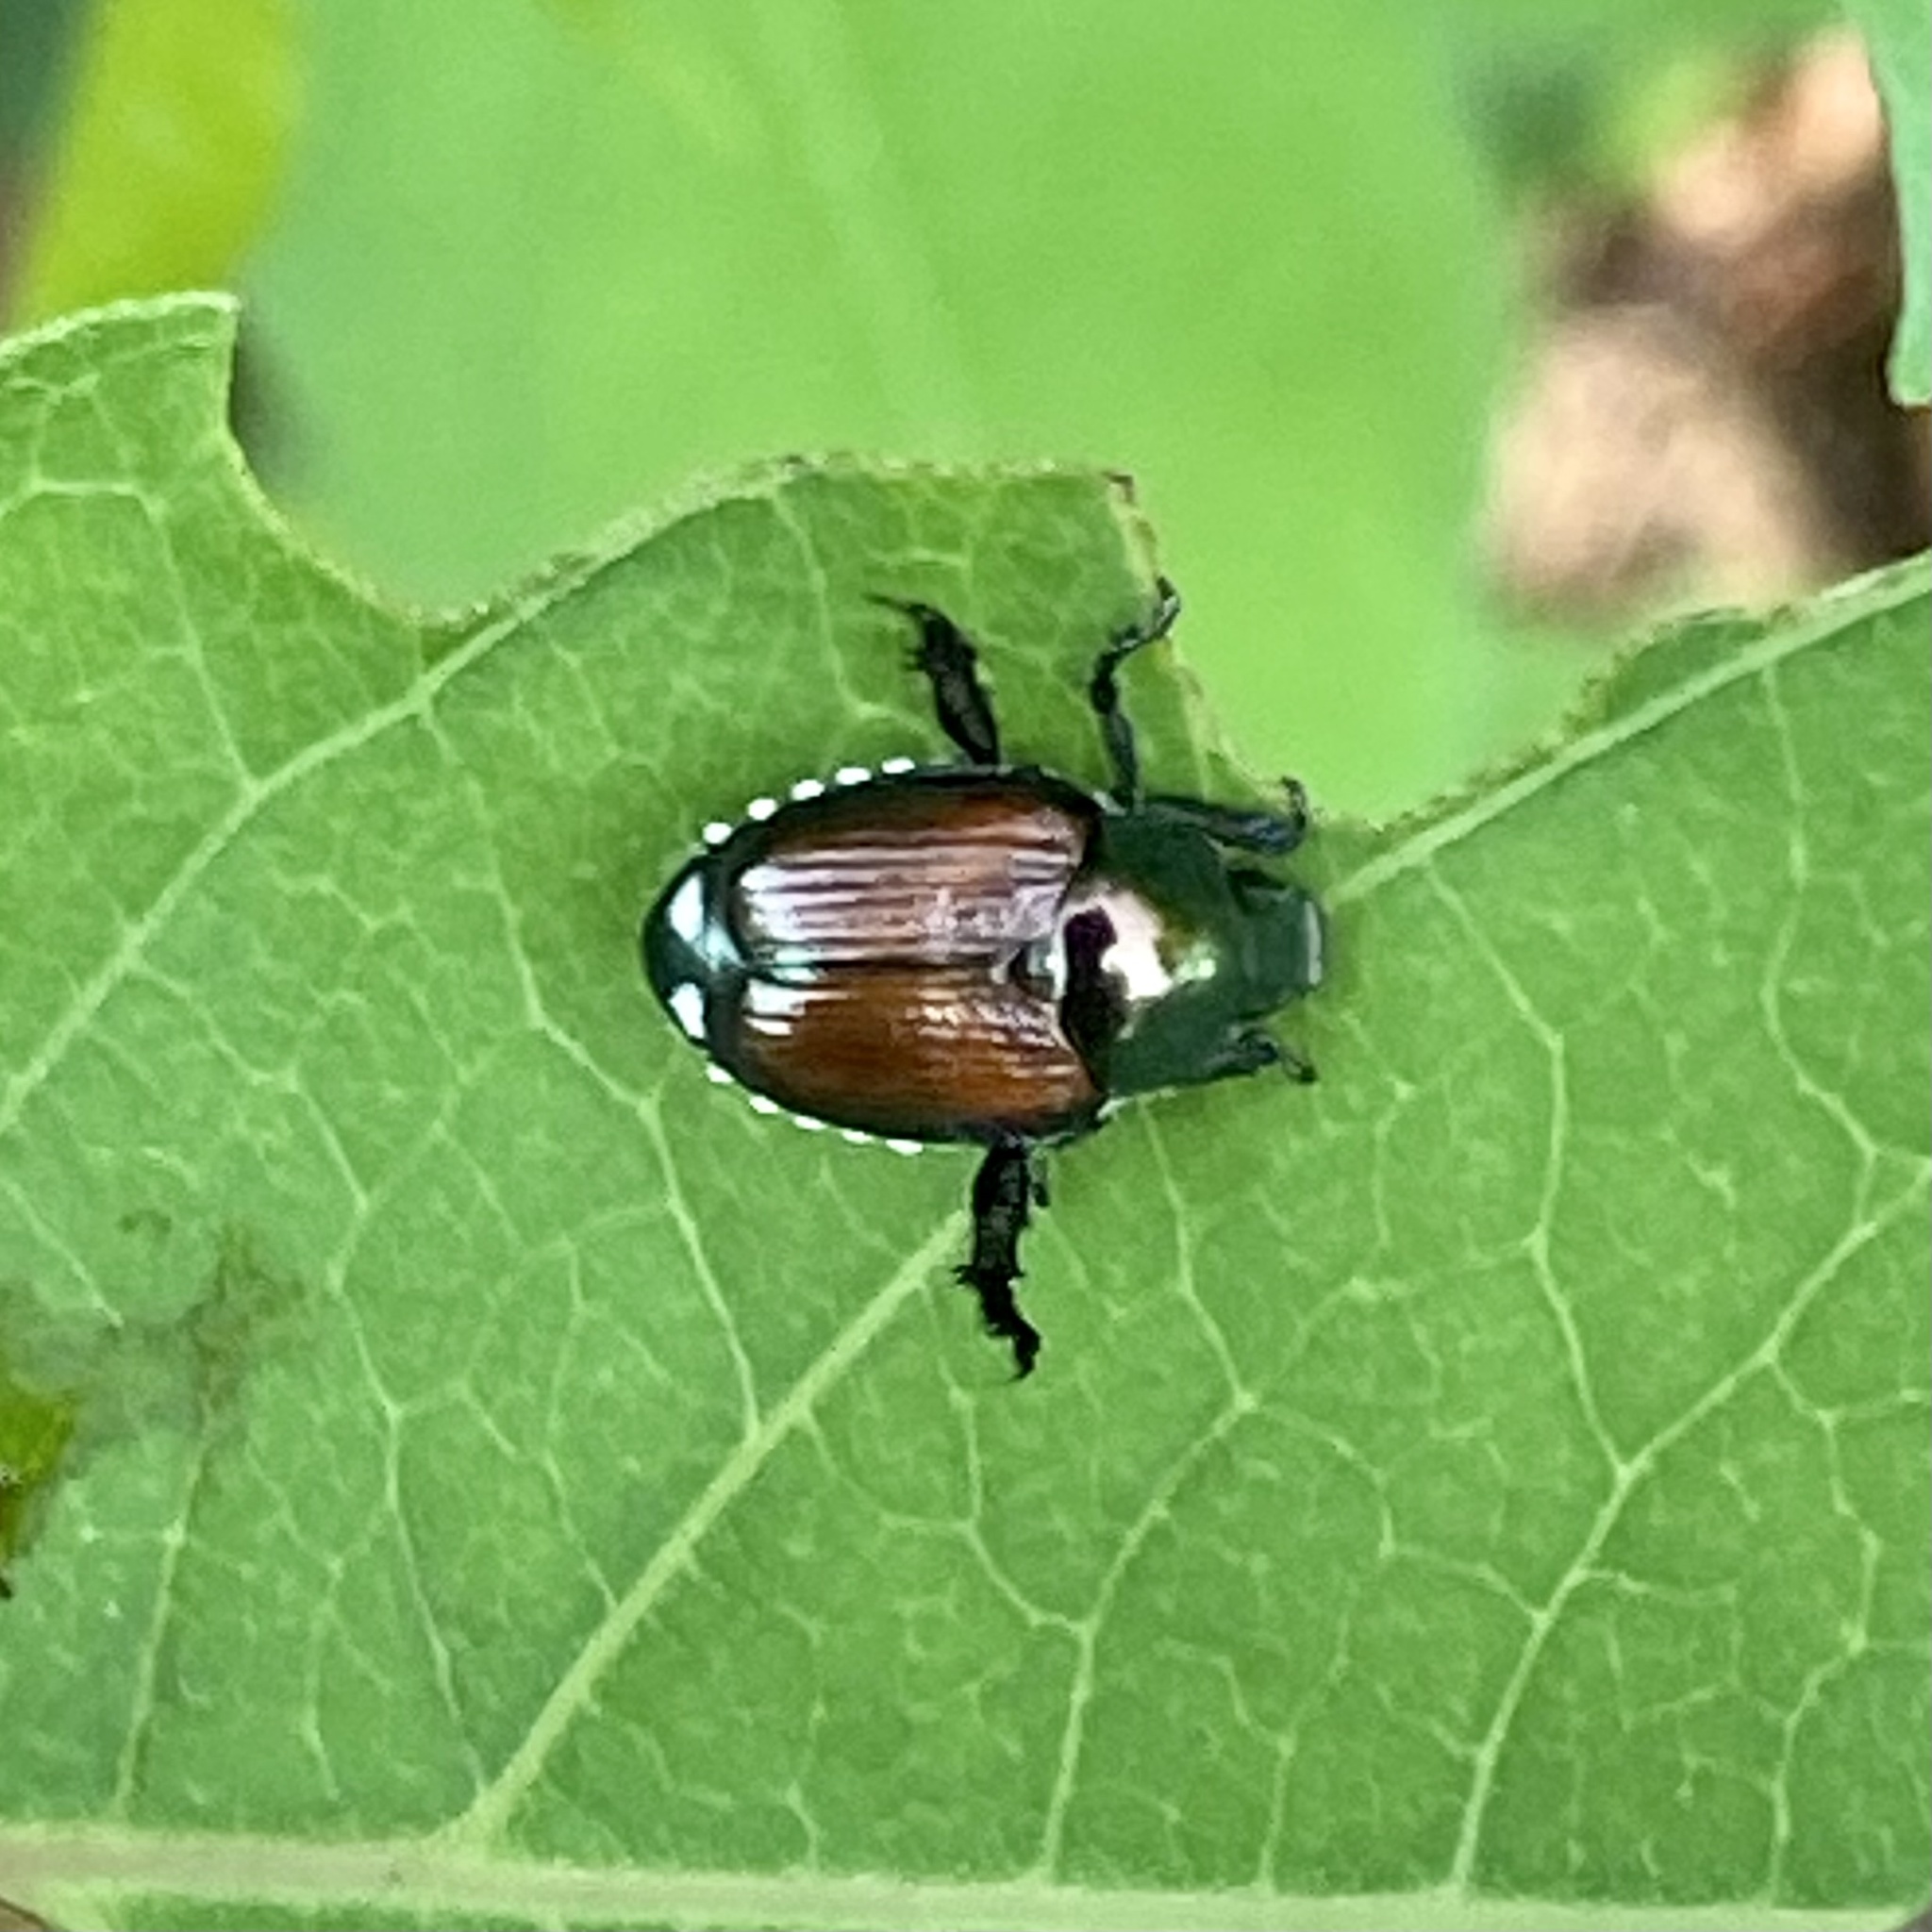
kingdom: Animalia
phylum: Arthropoda
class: Insecta
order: Coleoptera
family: Scarabaeidae
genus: Popillia
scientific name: Popillia japonica
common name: Japanese beetle
